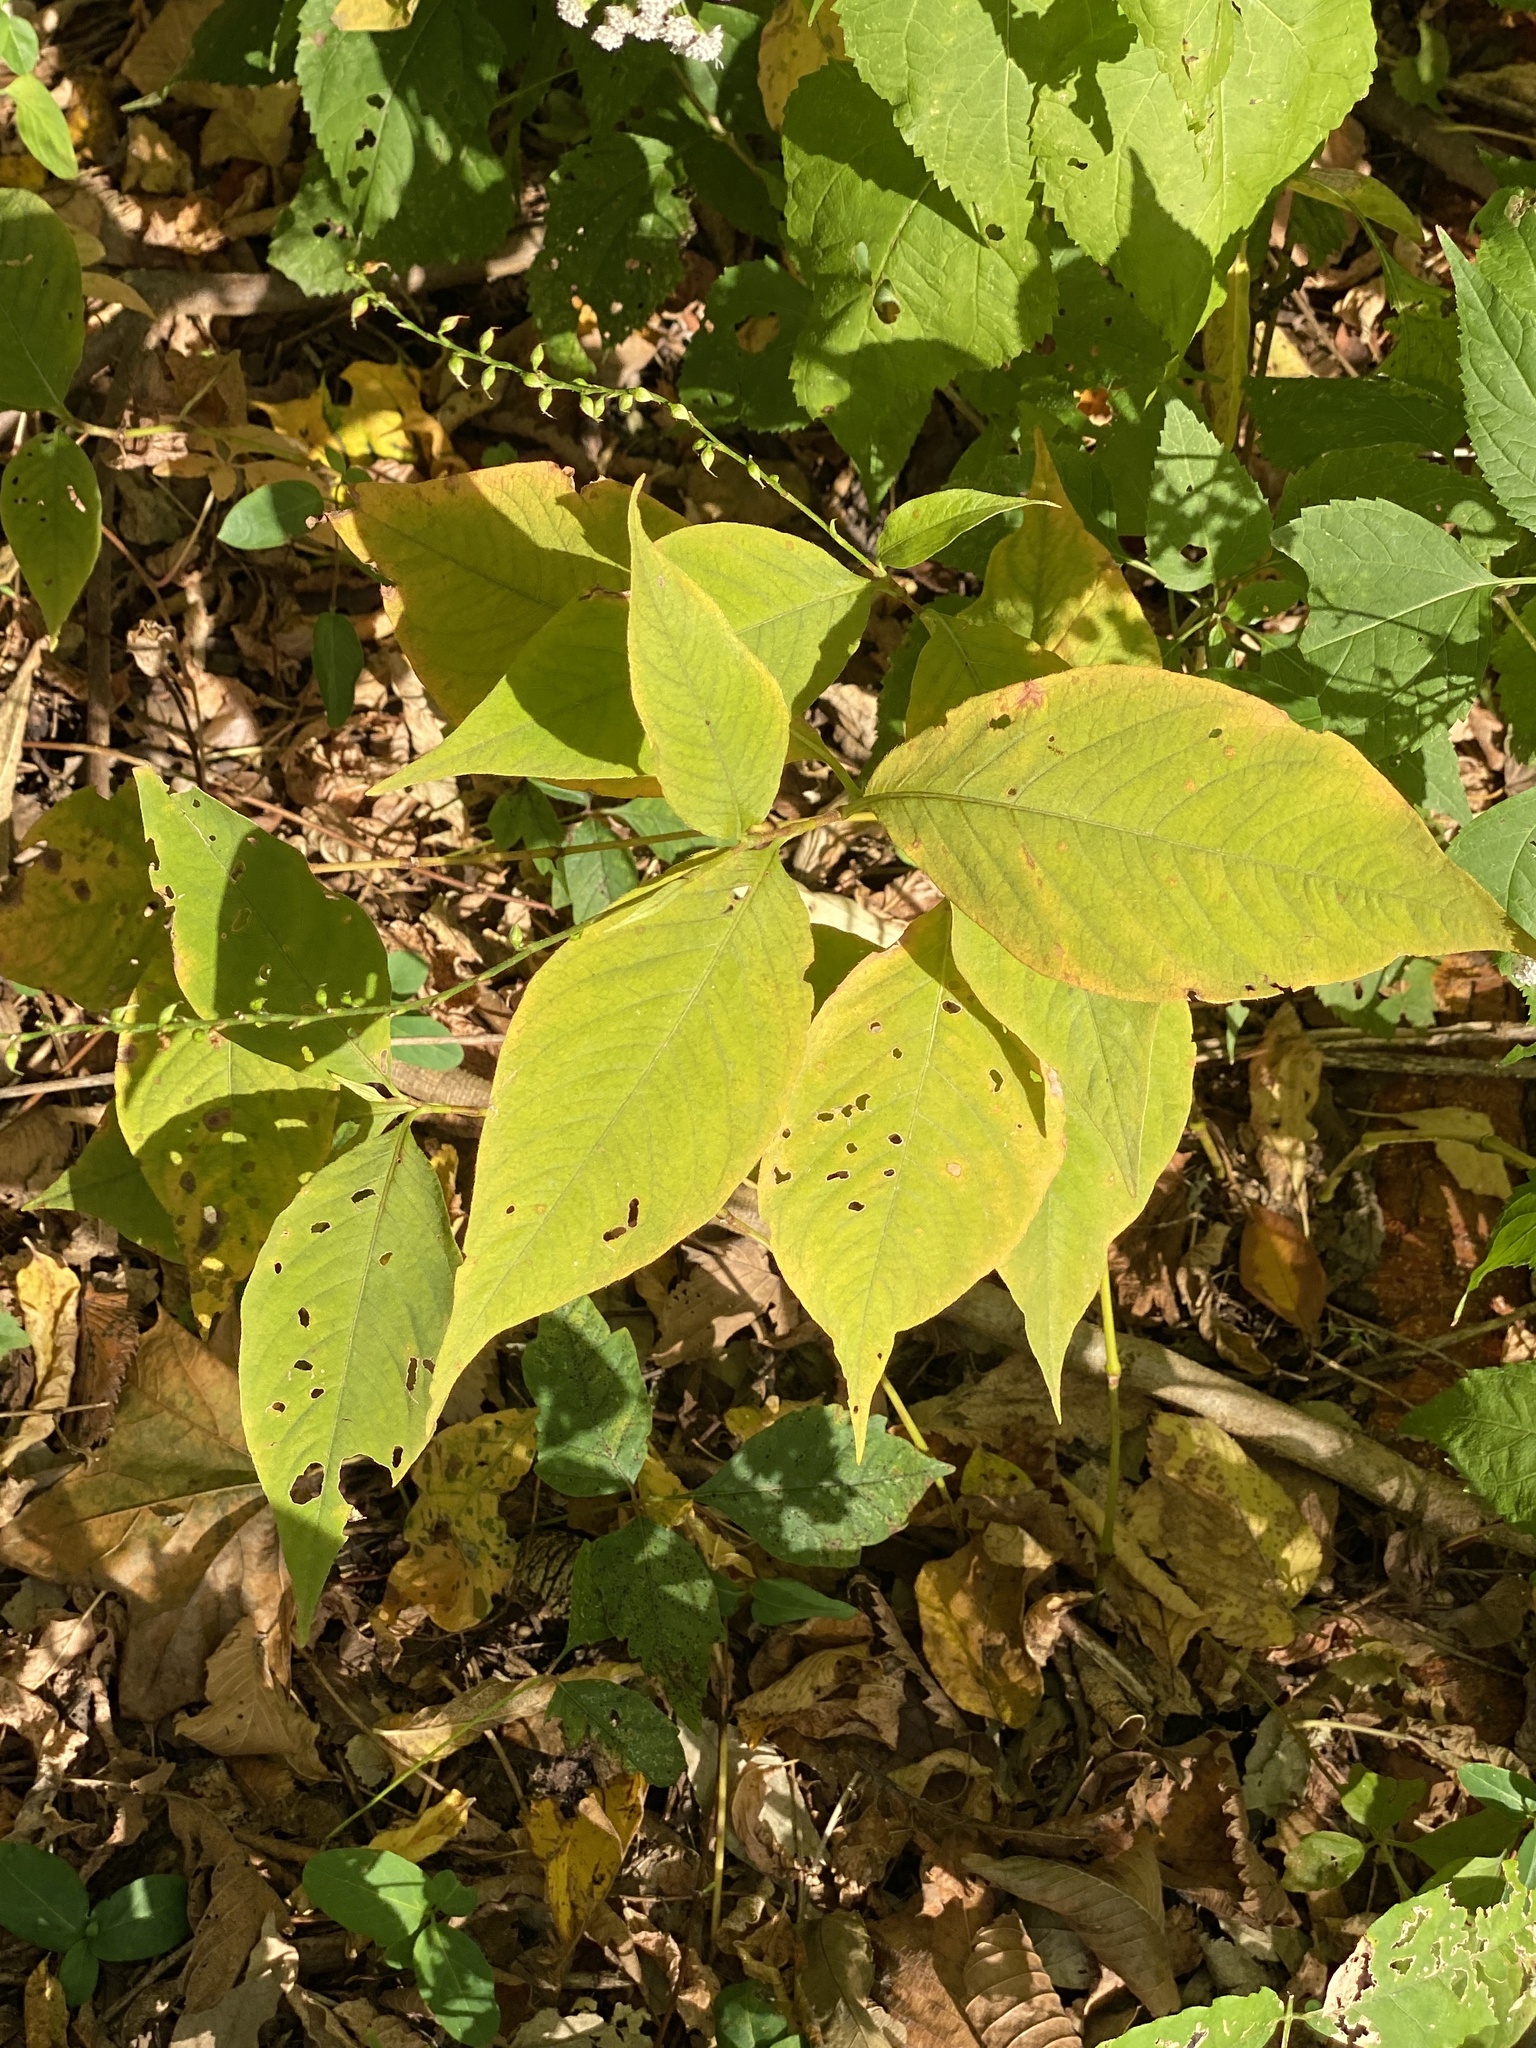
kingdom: Plantae
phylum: Tracheophyta
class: Magnoliopsida
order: Caryophyllales
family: Polygonaceae
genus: Persicaria
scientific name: Persicaria virginiana
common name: Jumpseed
